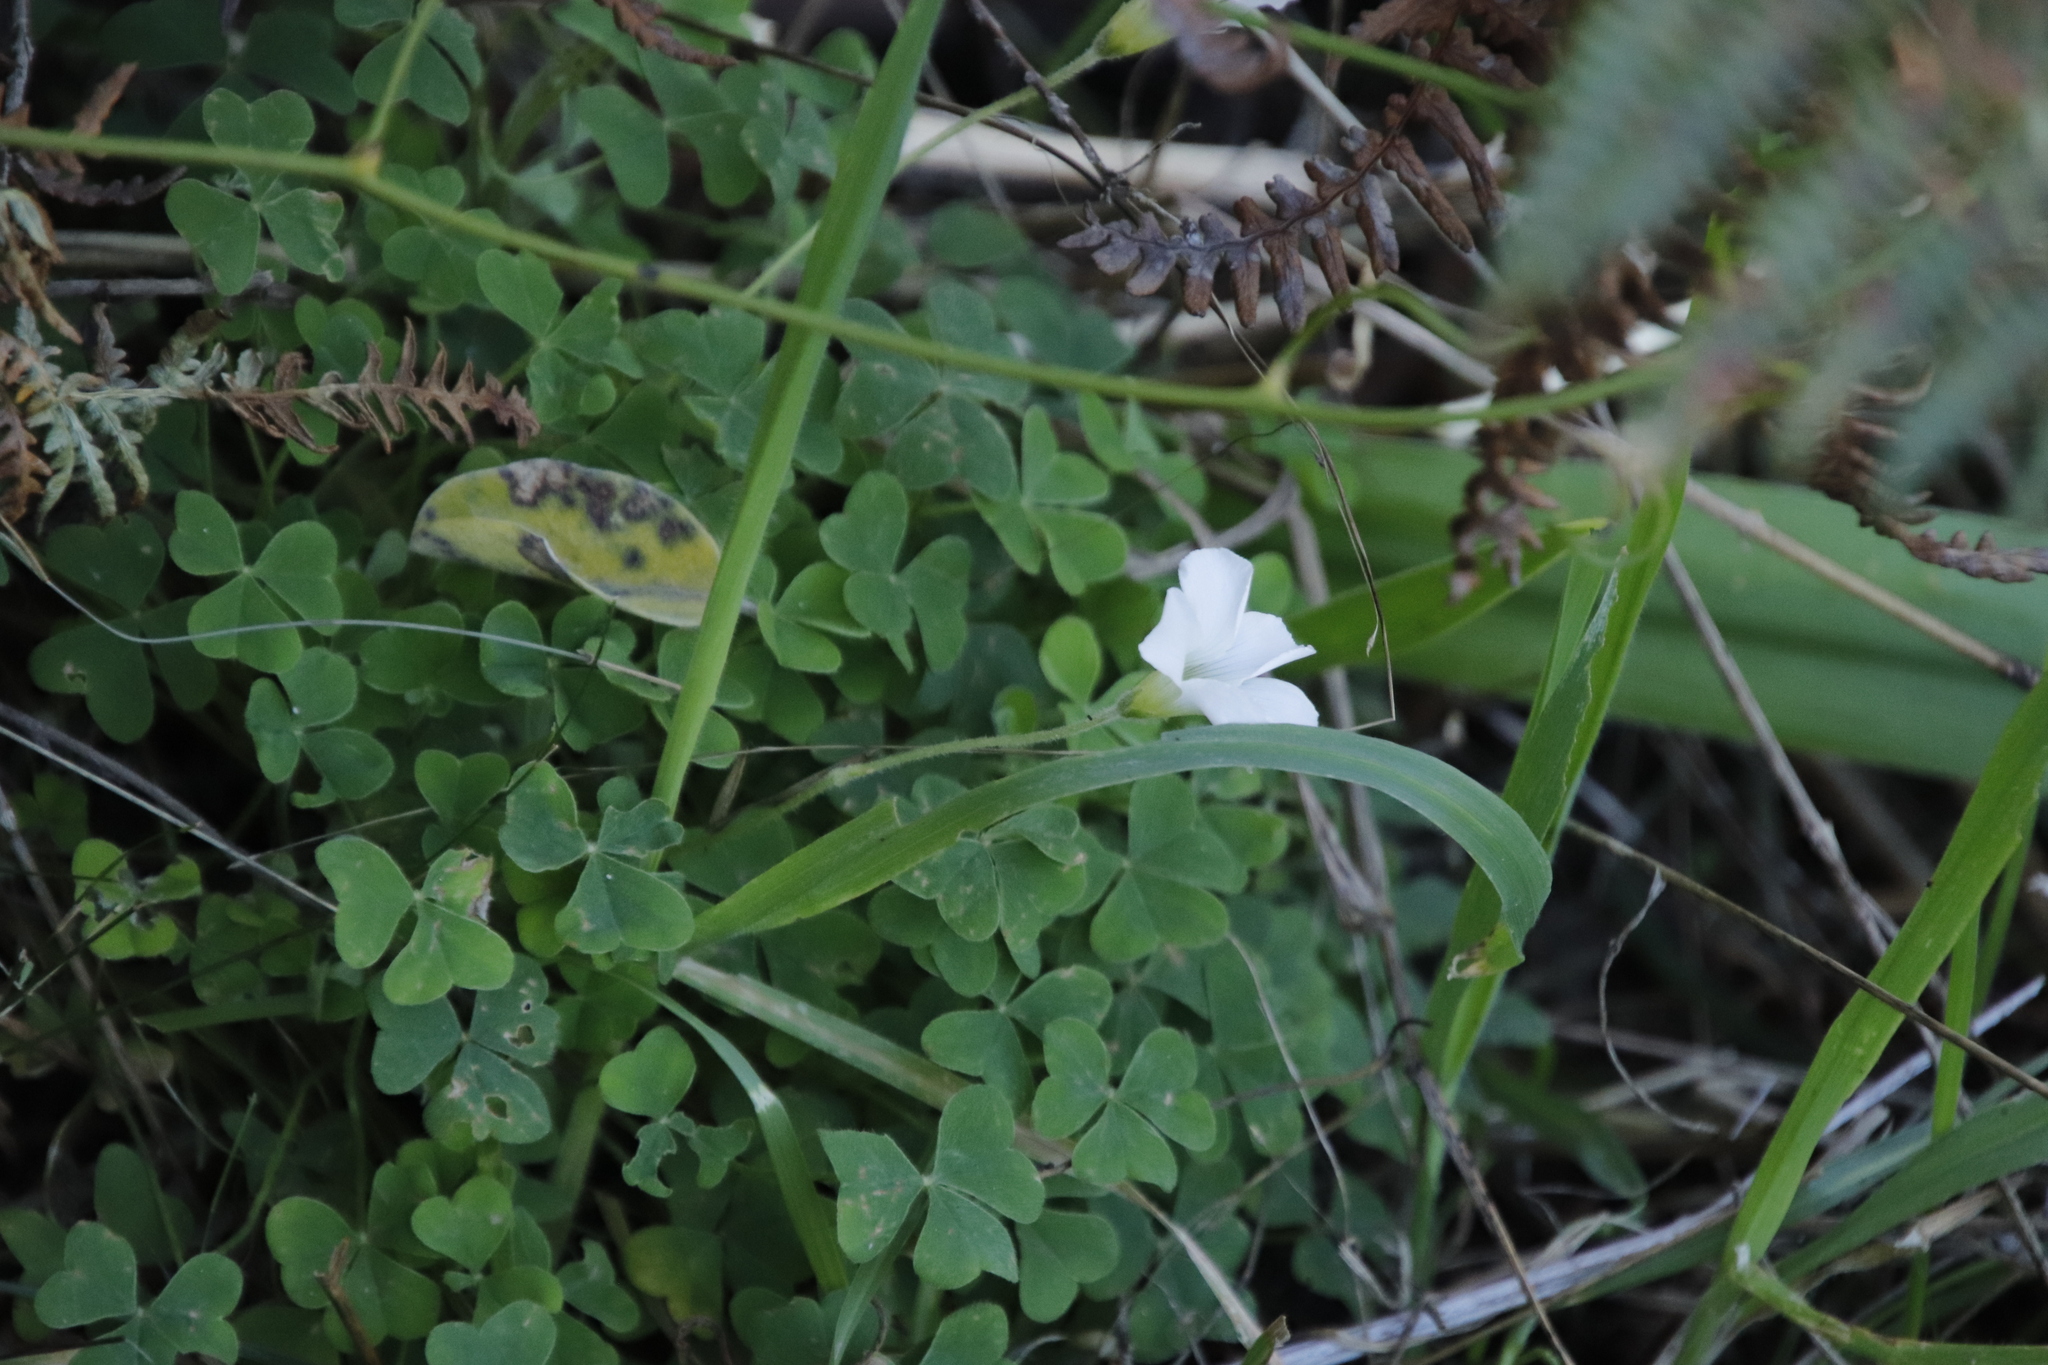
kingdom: Plantae
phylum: Tracheophyta
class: Magnoliopsida
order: Oxalidales
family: Oxalidaceae
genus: Oxalis
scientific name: Oxalis lanata
